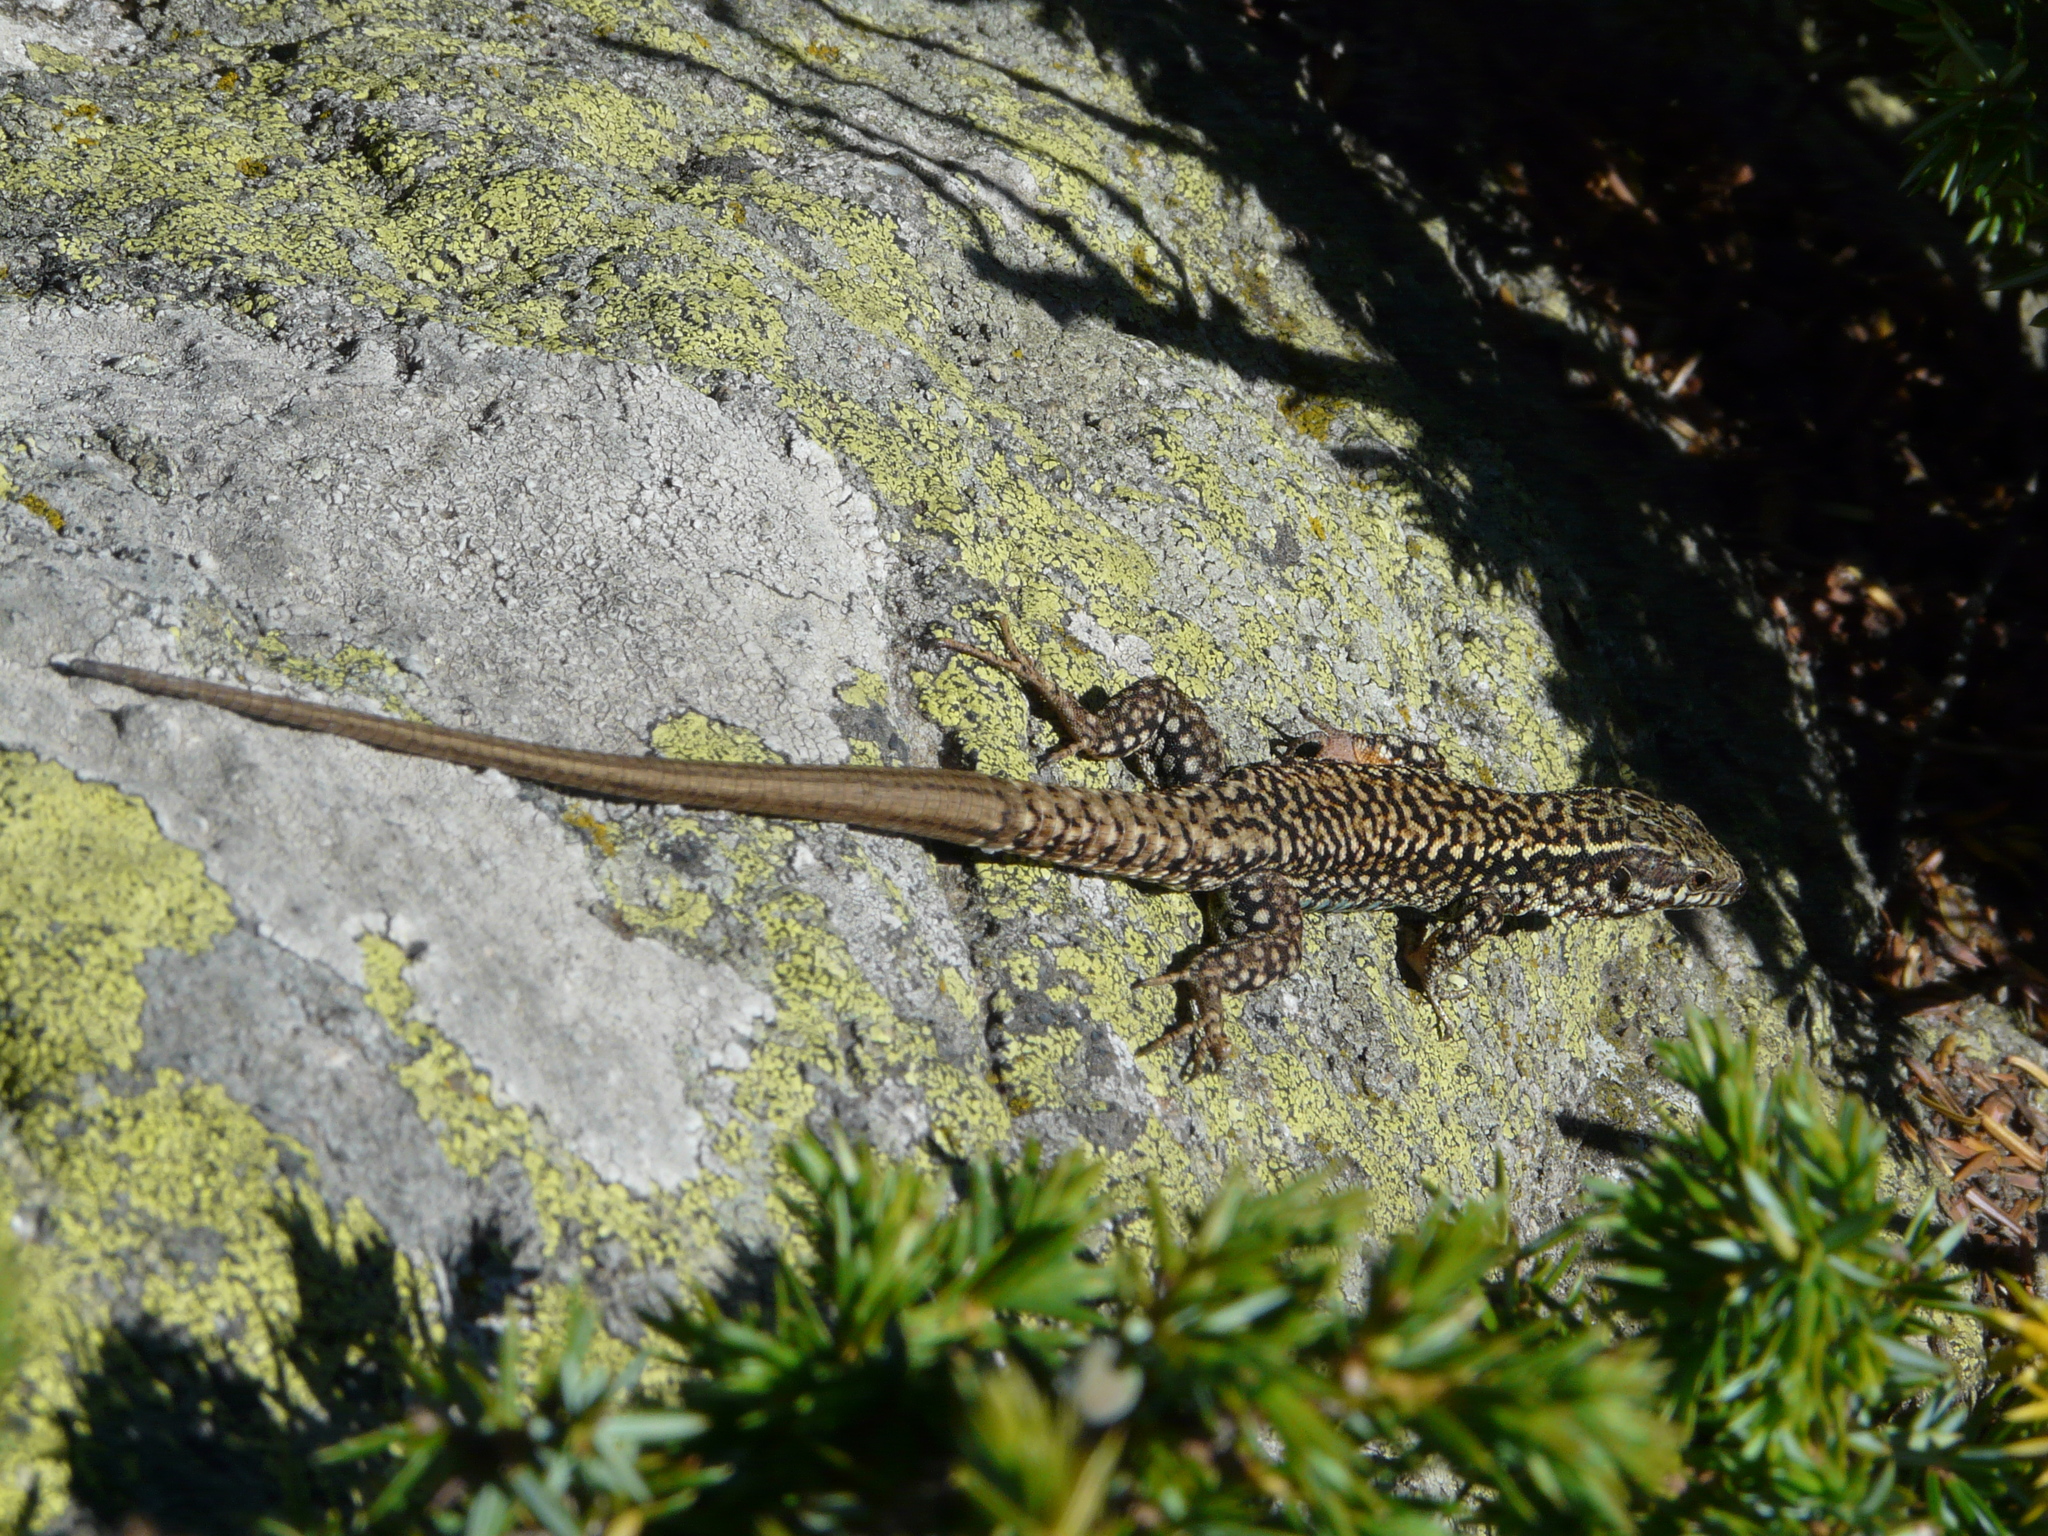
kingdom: Animalia
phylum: Chordata
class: Squamata
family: Lacertidae
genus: Podarcis
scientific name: Podarcis muralis
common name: Common wall lizard
